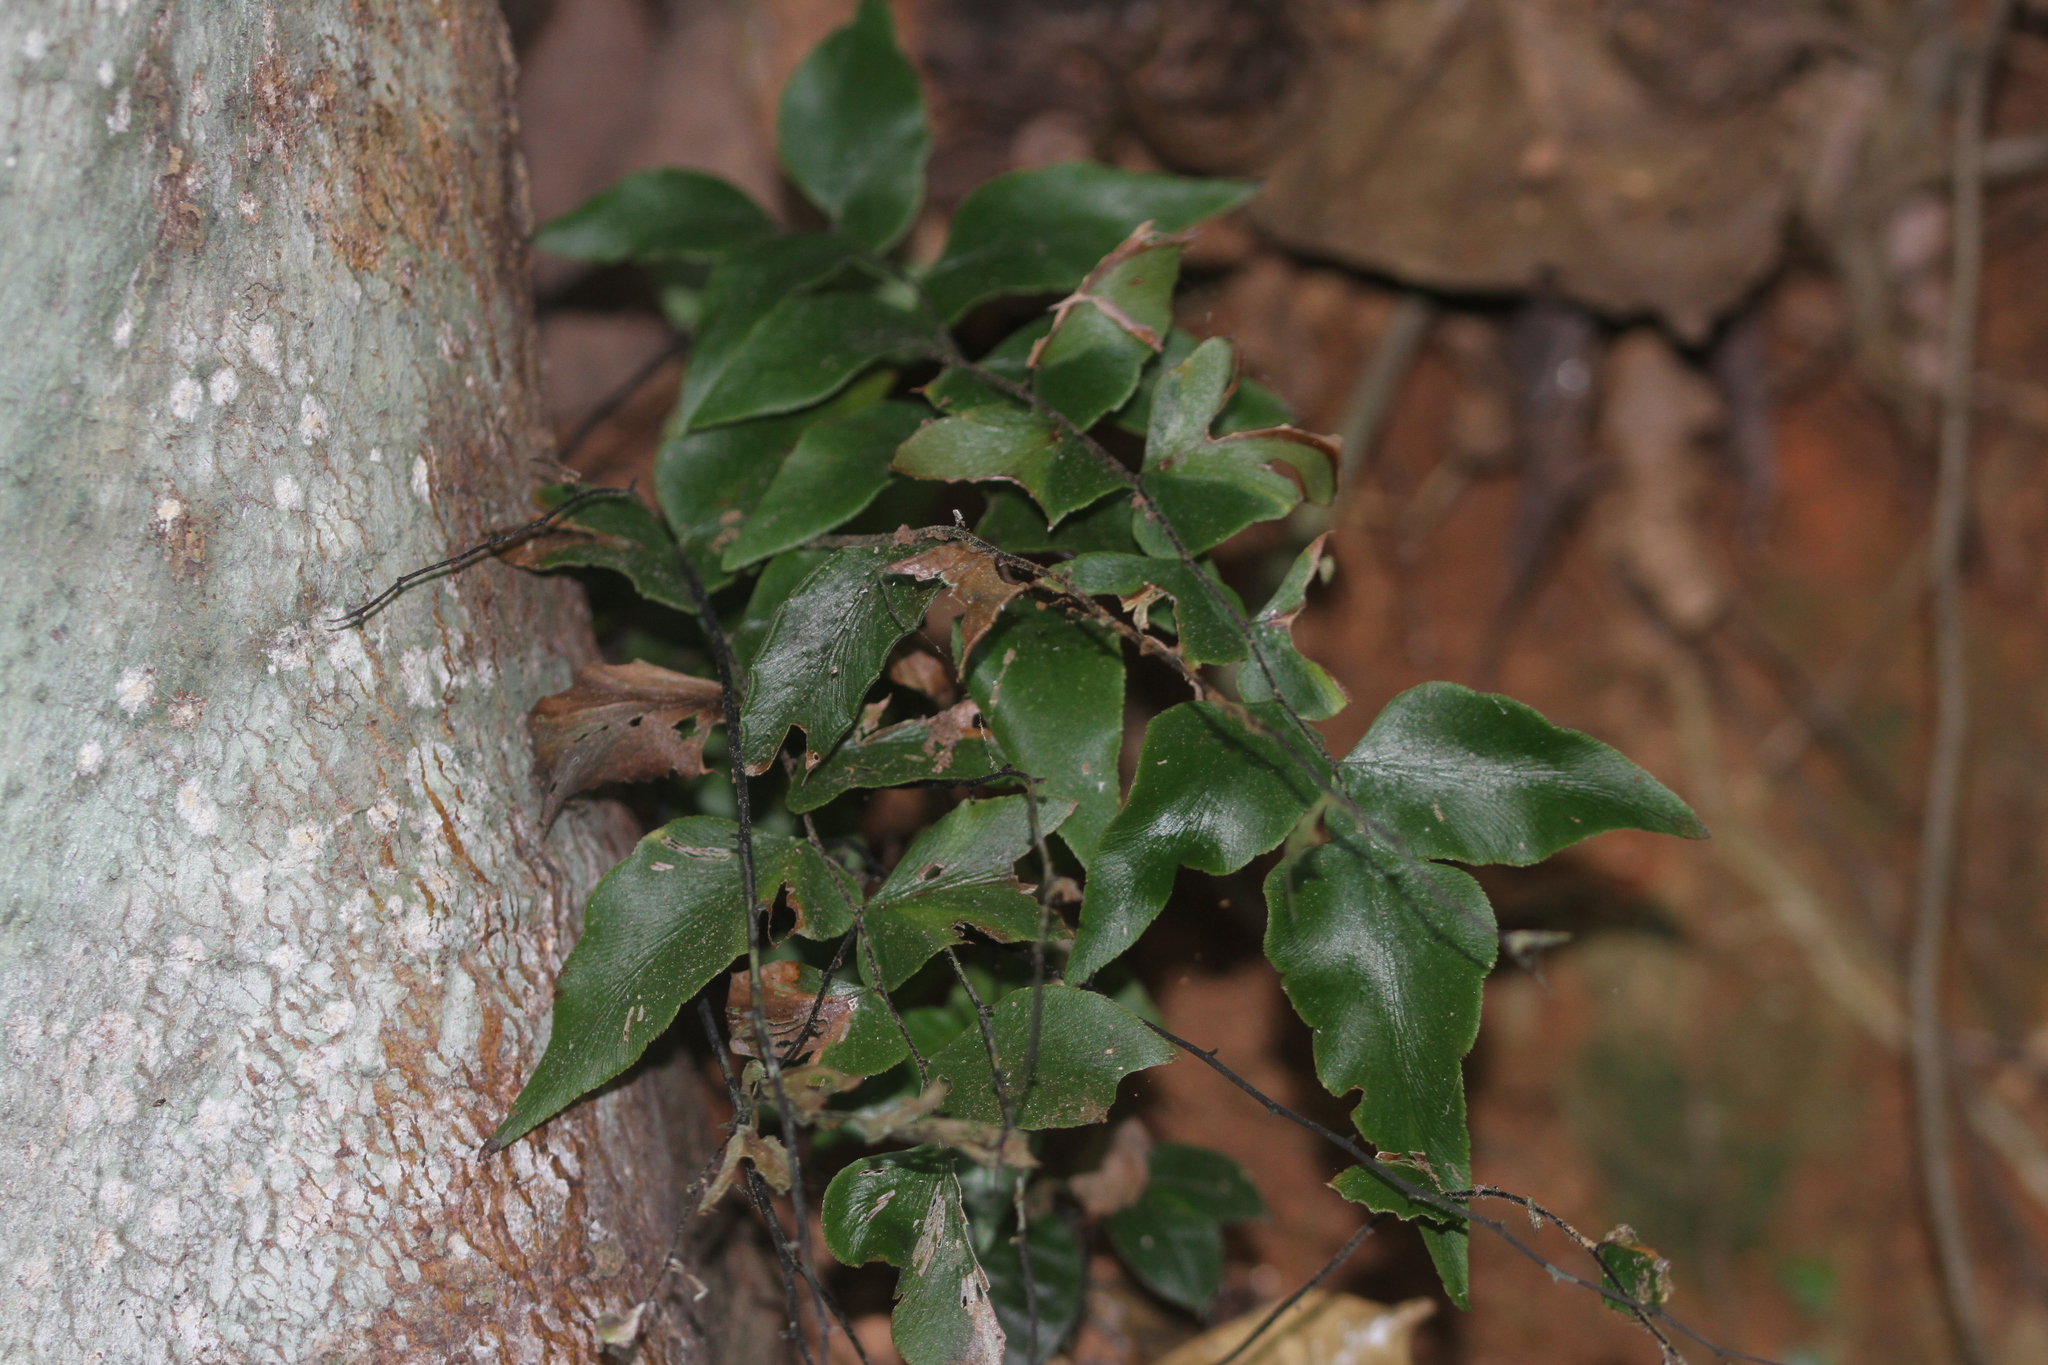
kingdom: Plantae
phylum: Tracheophyta
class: Polypodiopsida
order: Polypodiales
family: Pteridaceae
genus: Adiantum
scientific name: Adiantum petiolatum
